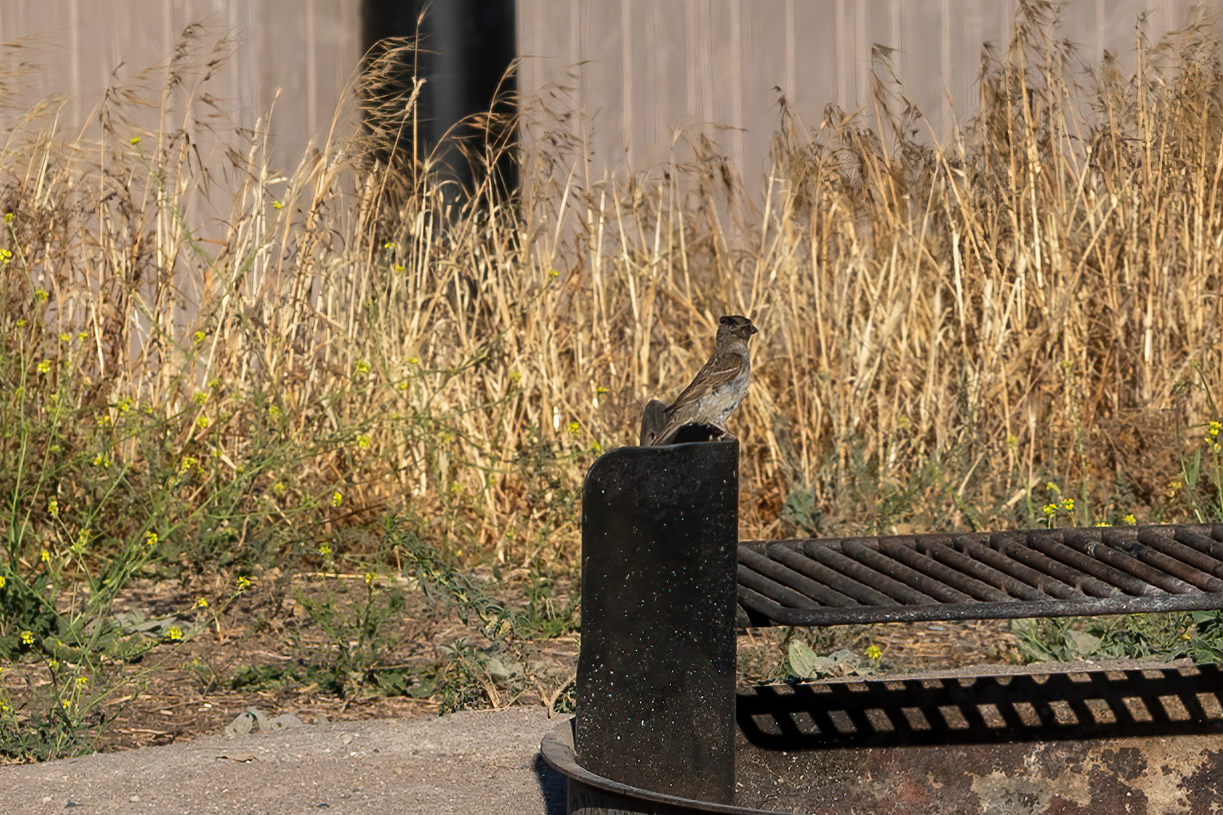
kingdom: Animalia
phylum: Chordata
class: Aves
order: Passeriformes
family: Passeridae
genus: Passer
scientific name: Passer domesticus
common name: House sparrow
